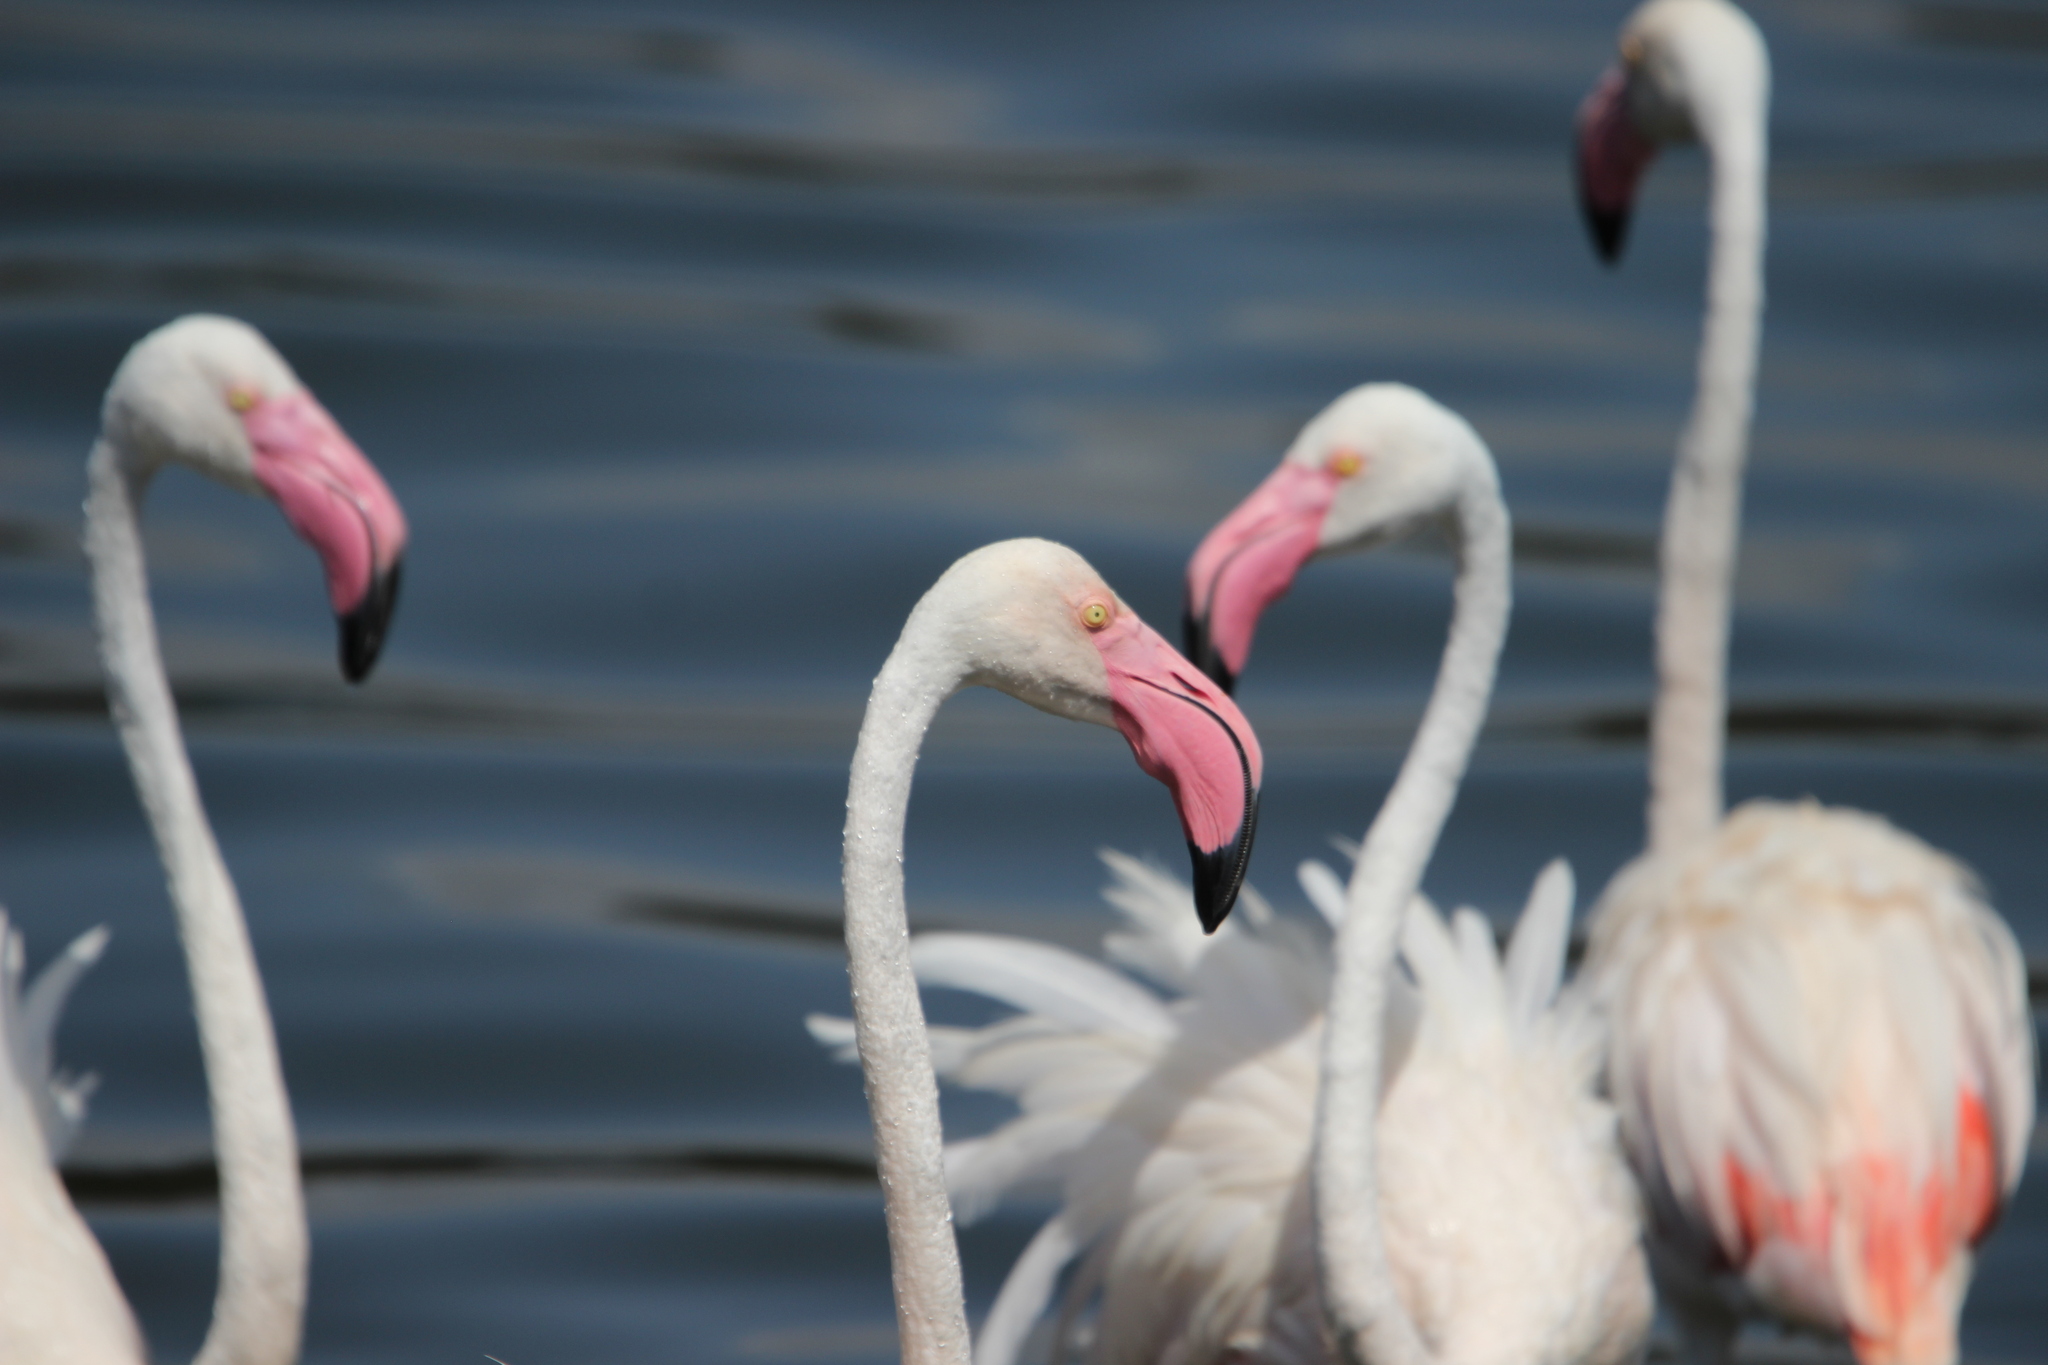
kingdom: Animalia
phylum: Chordata
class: Aves
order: Phoenicopteriformes
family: Phoenicopteridae
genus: Phoenicopterus
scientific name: Phoenicopterus roseus
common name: Greater flamingo
